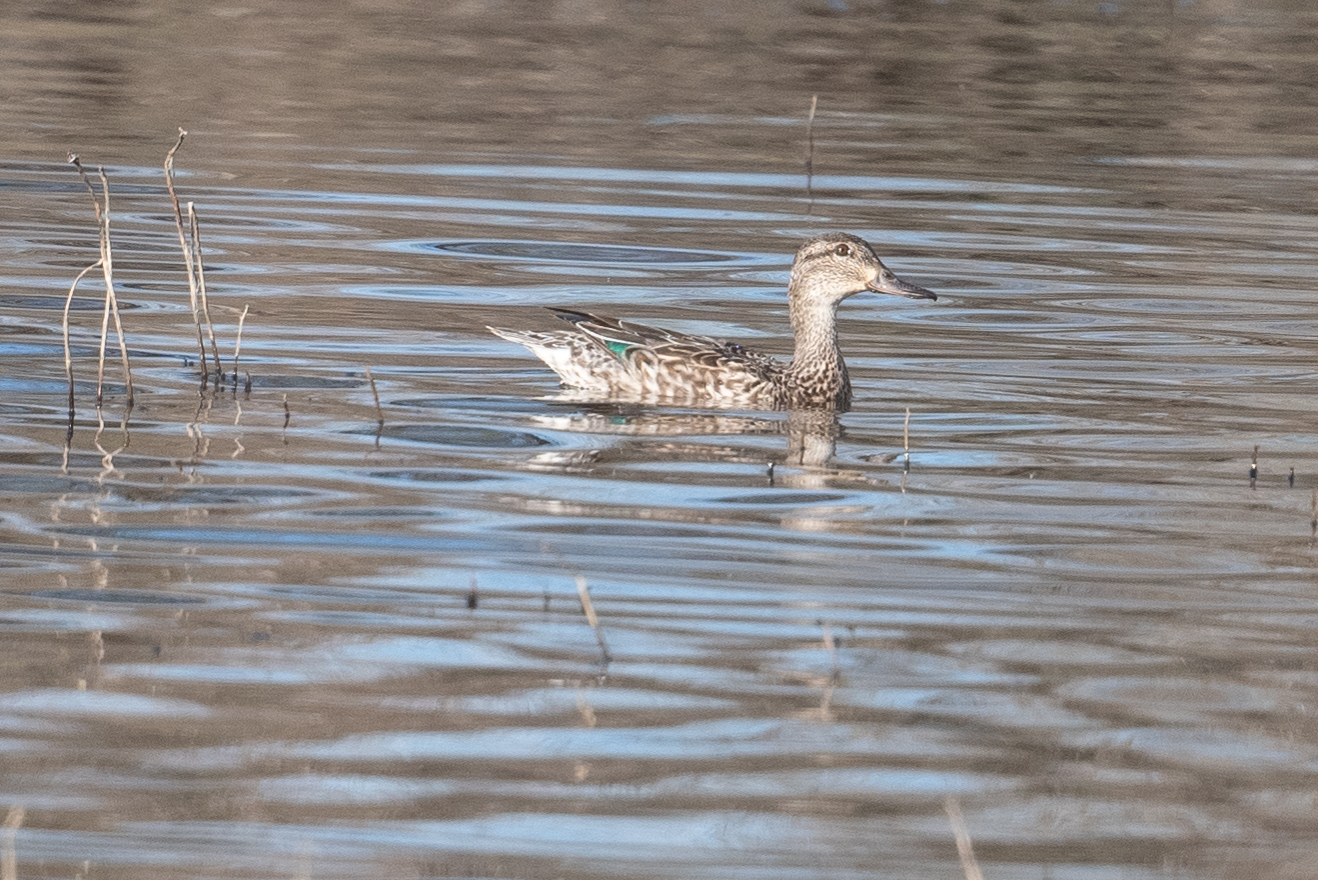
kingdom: Animalia
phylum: Chordata
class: Aves
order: Anseriformes
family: Anatidae
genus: Anas
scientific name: Anas crecca
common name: Eurasian teal
